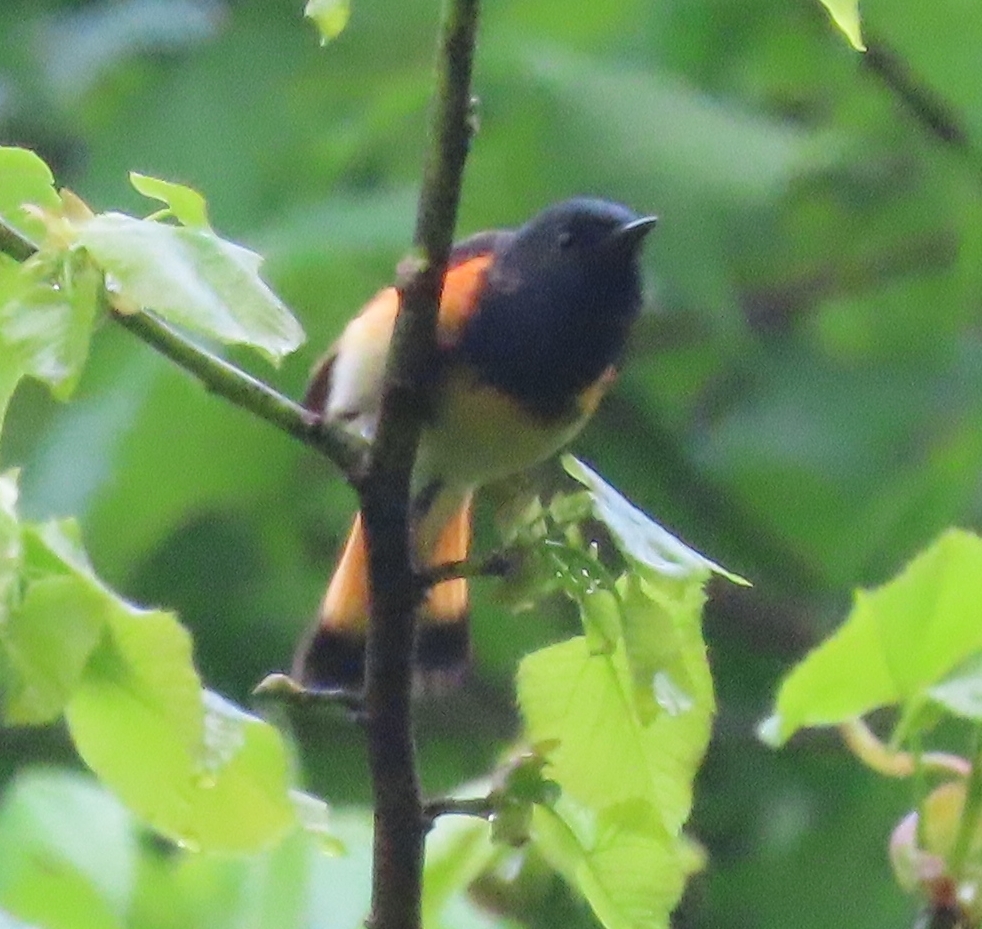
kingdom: Animalia
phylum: Chordata
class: Aves
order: Passeriformes
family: Parulidae
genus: Setophaga
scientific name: Setophaga ruticilla
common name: American redstart
